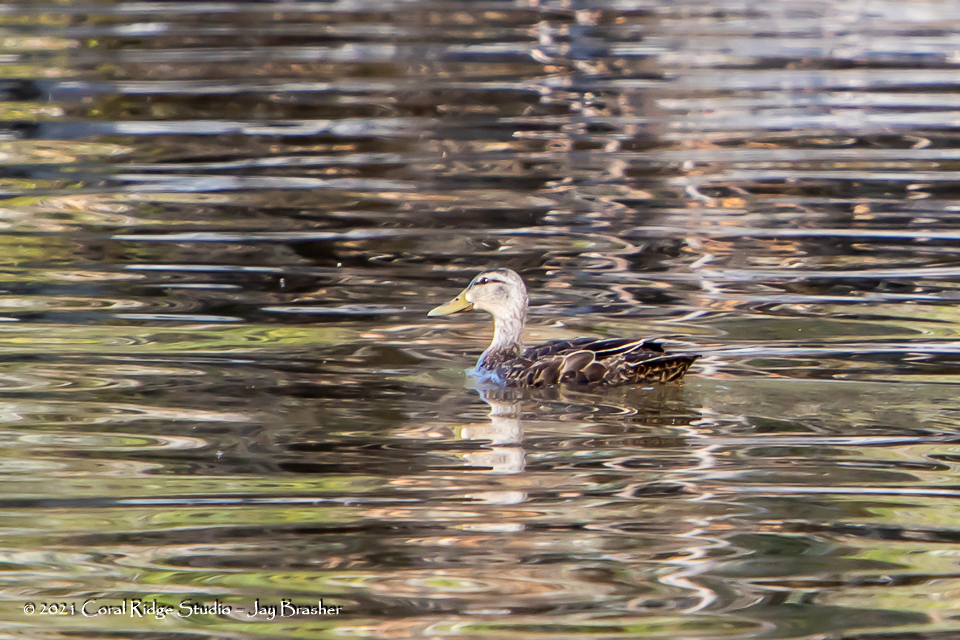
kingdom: Animalia
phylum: Chordata
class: Aves
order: Anseriformes
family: Anatidae
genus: Anas
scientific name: Anas rubripes
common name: American black duck
